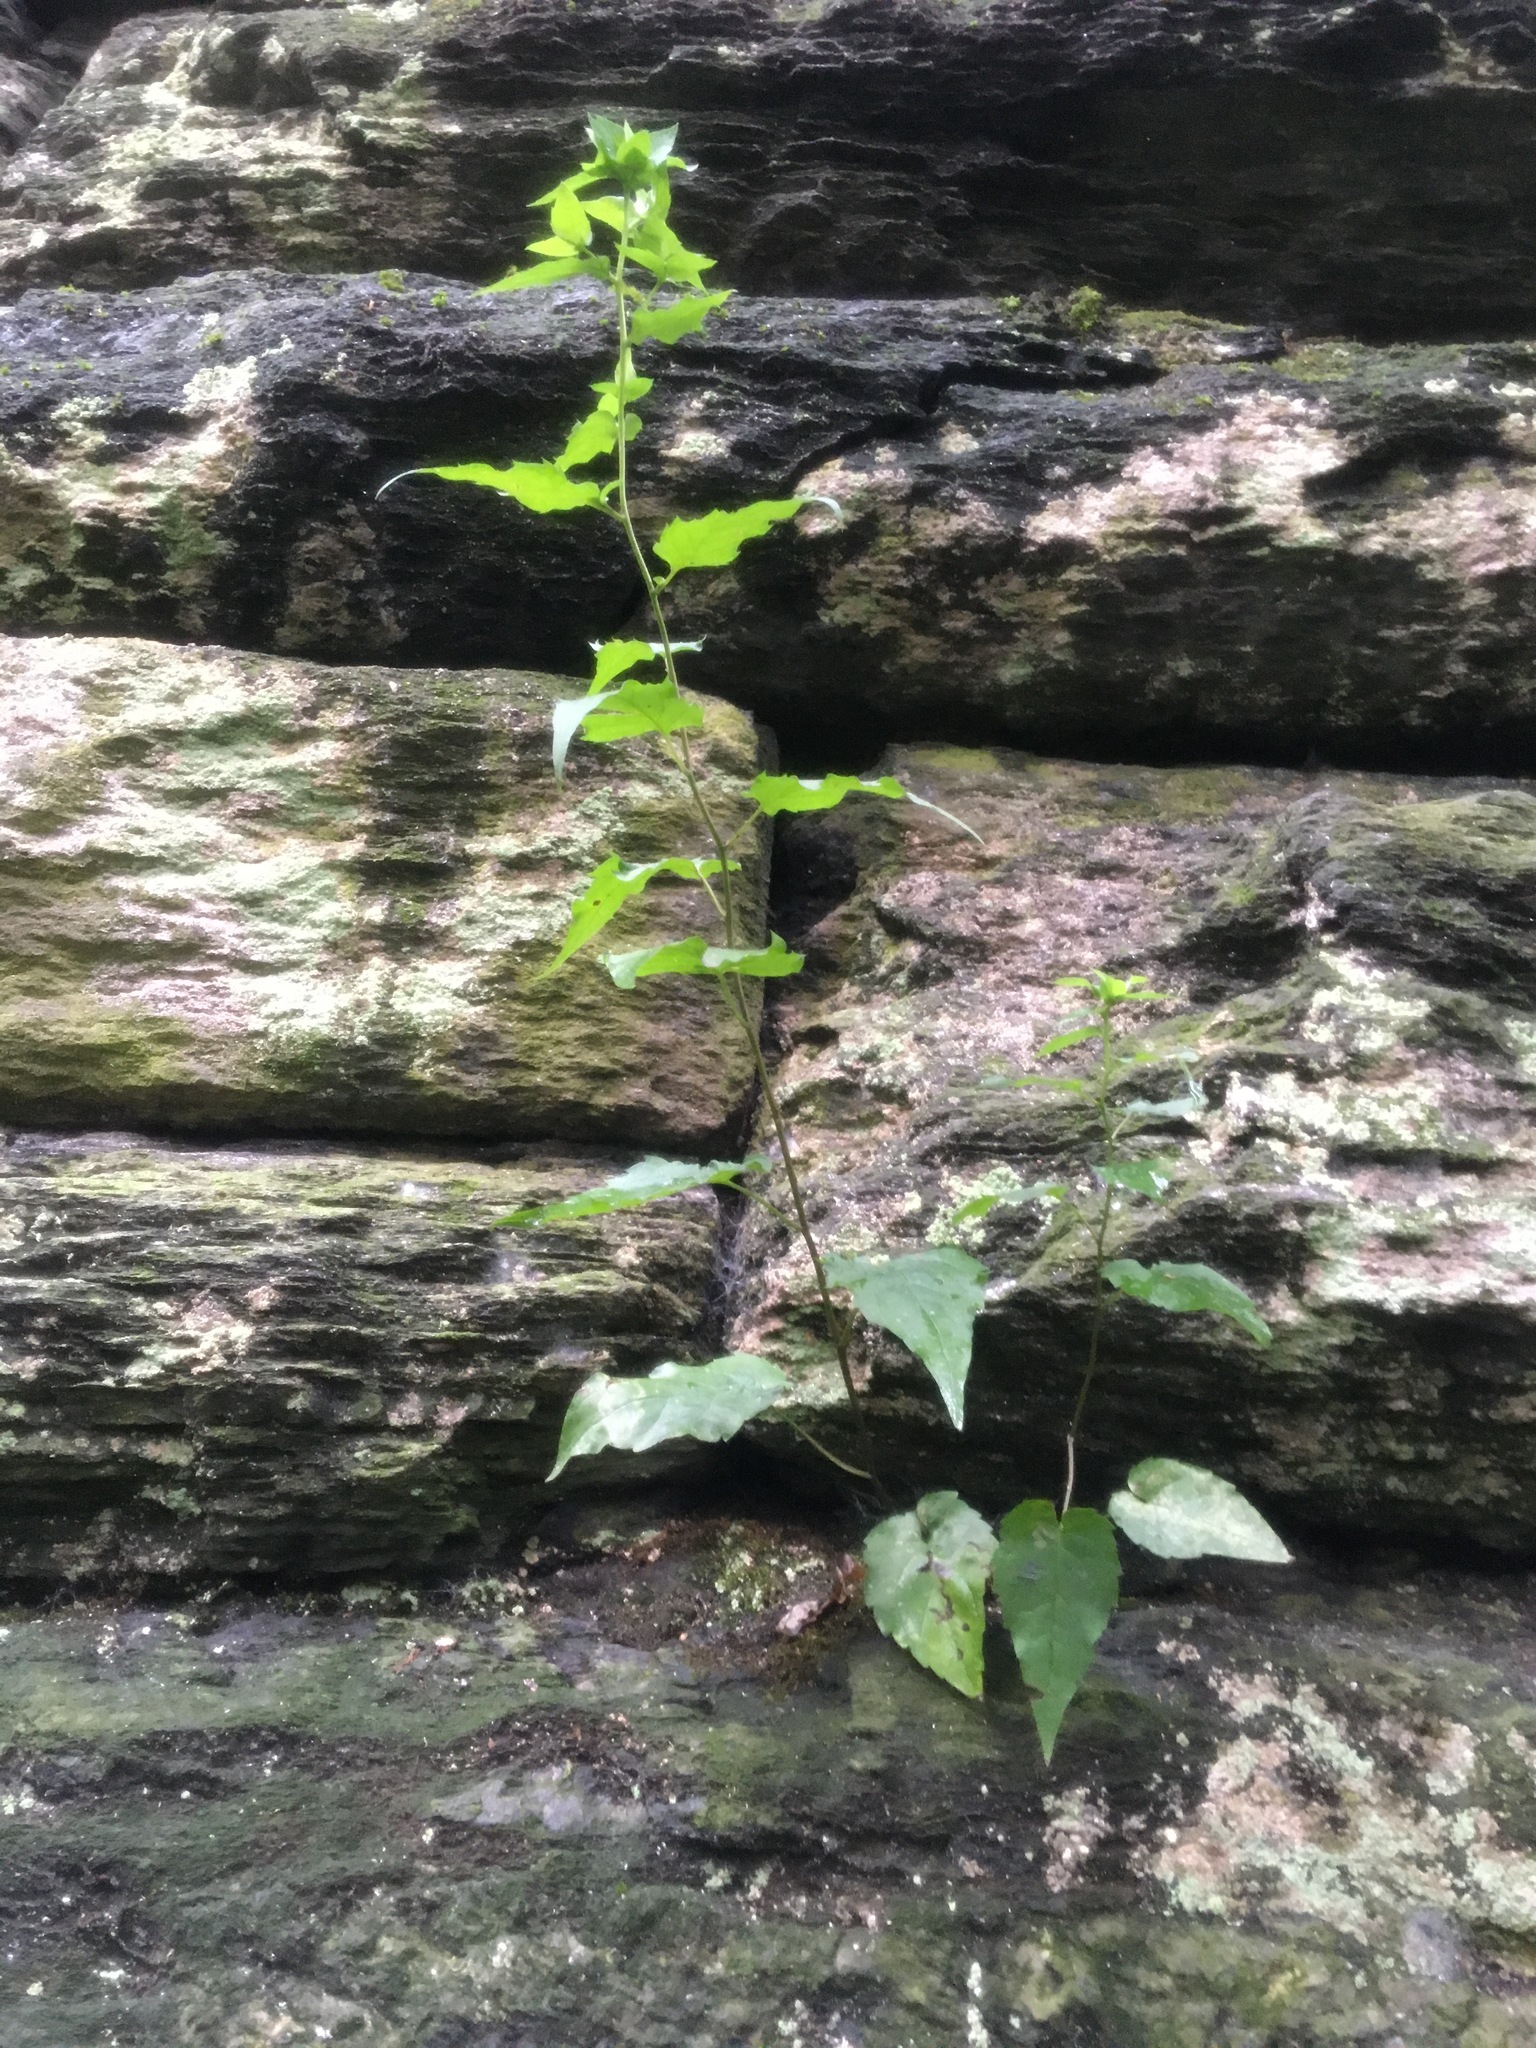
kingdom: Plantae
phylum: Tracheophyta
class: Magnoliopsida
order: Asterales
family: Asteraceae
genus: Eurybia
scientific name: Eurybia divaricata
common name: White wood aster
